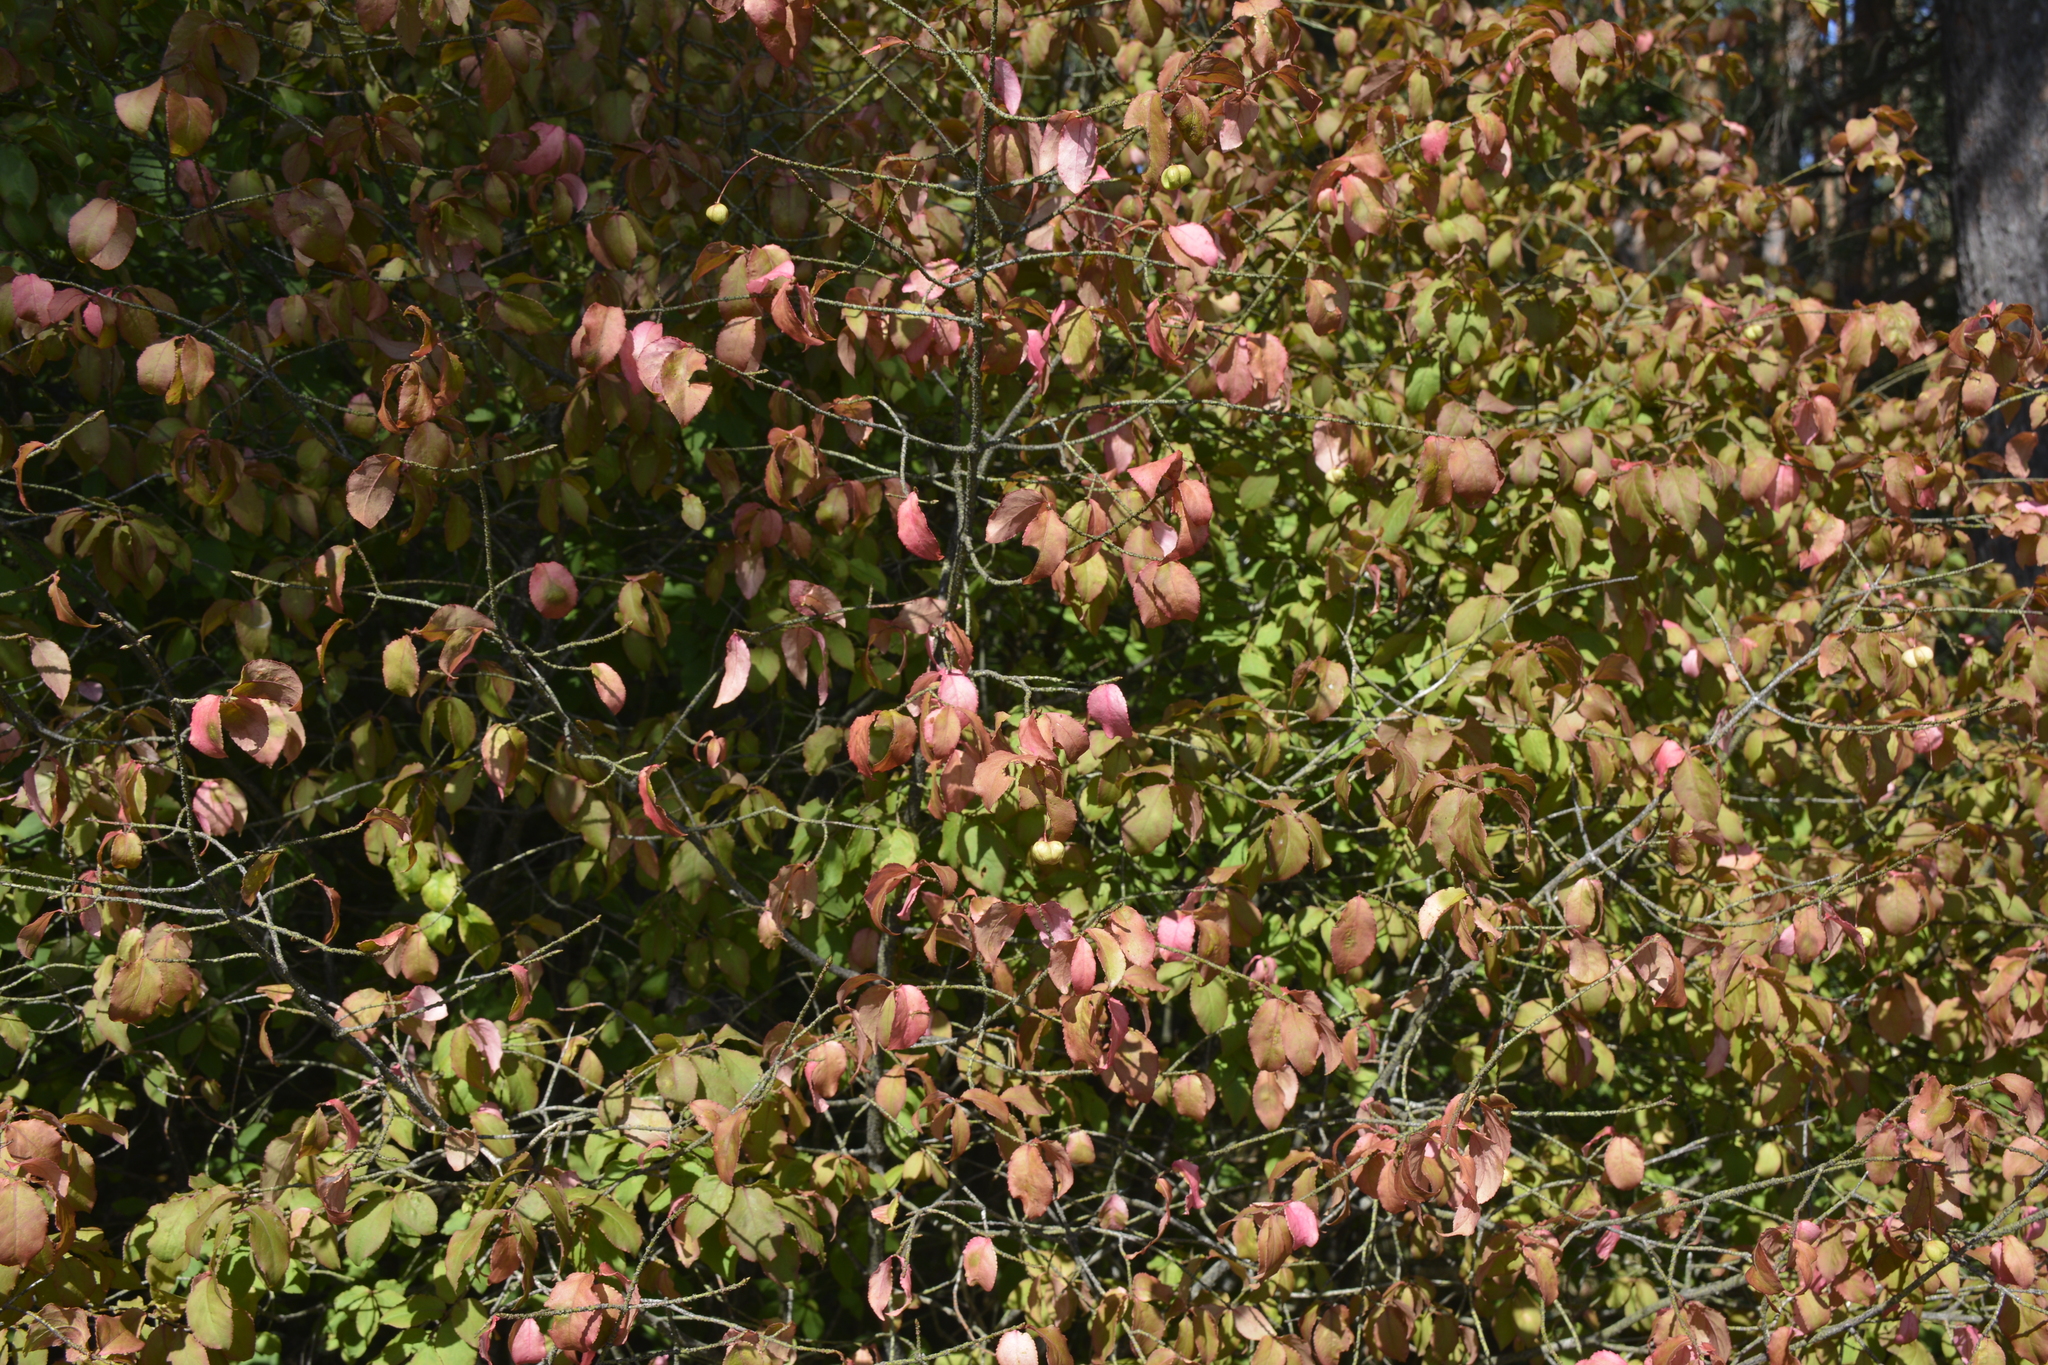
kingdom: Plantae
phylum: Tracheophyta
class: Magnoliopsida
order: Celastrales
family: Celastraceae
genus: Euonymus
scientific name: Euonymus verrucosus
